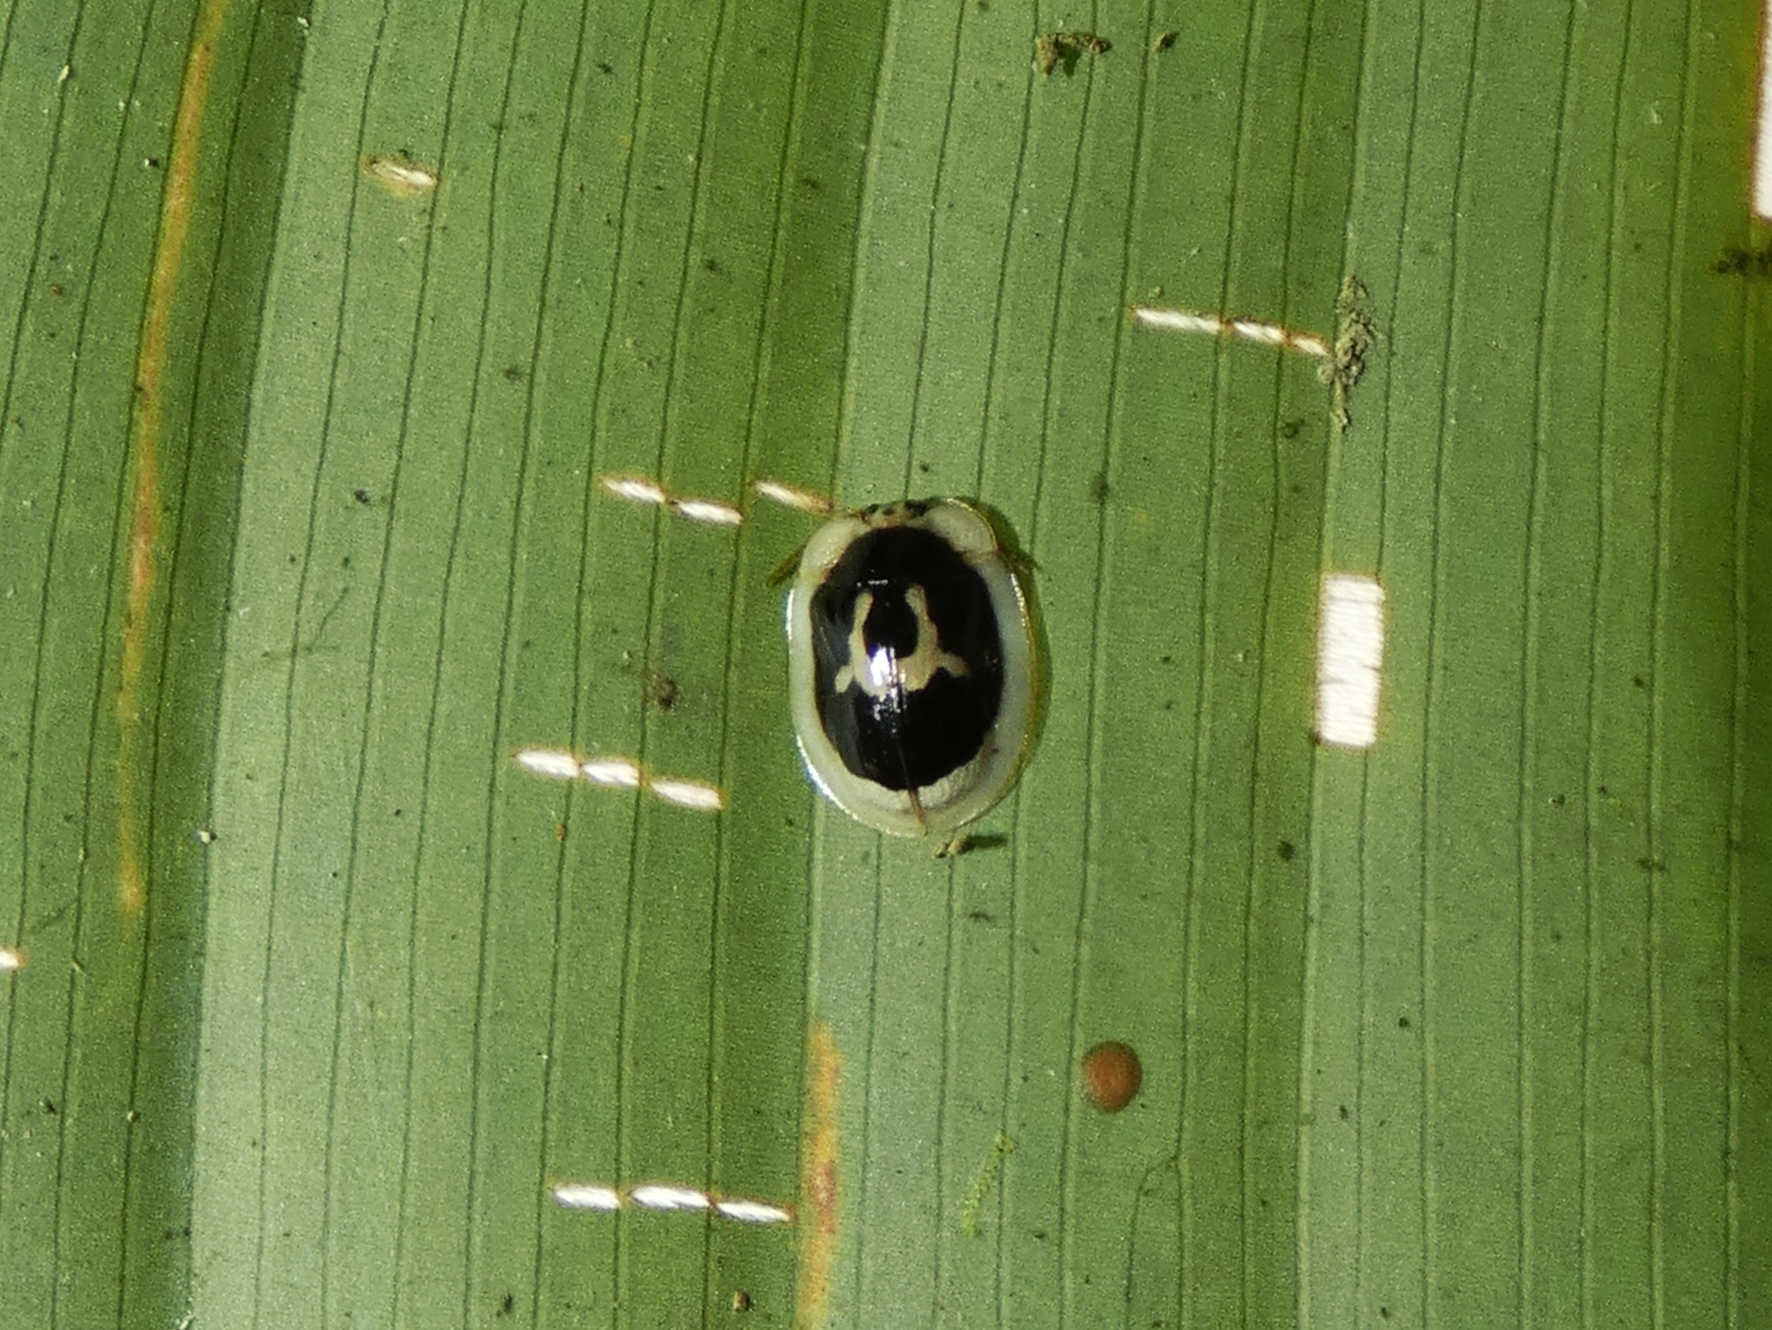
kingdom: Animalia
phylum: Arthropoda
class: Insecta
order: Coleoptera
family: Chrysomelidae
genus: Aslamidium
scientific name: Aslamidium semicirculare
